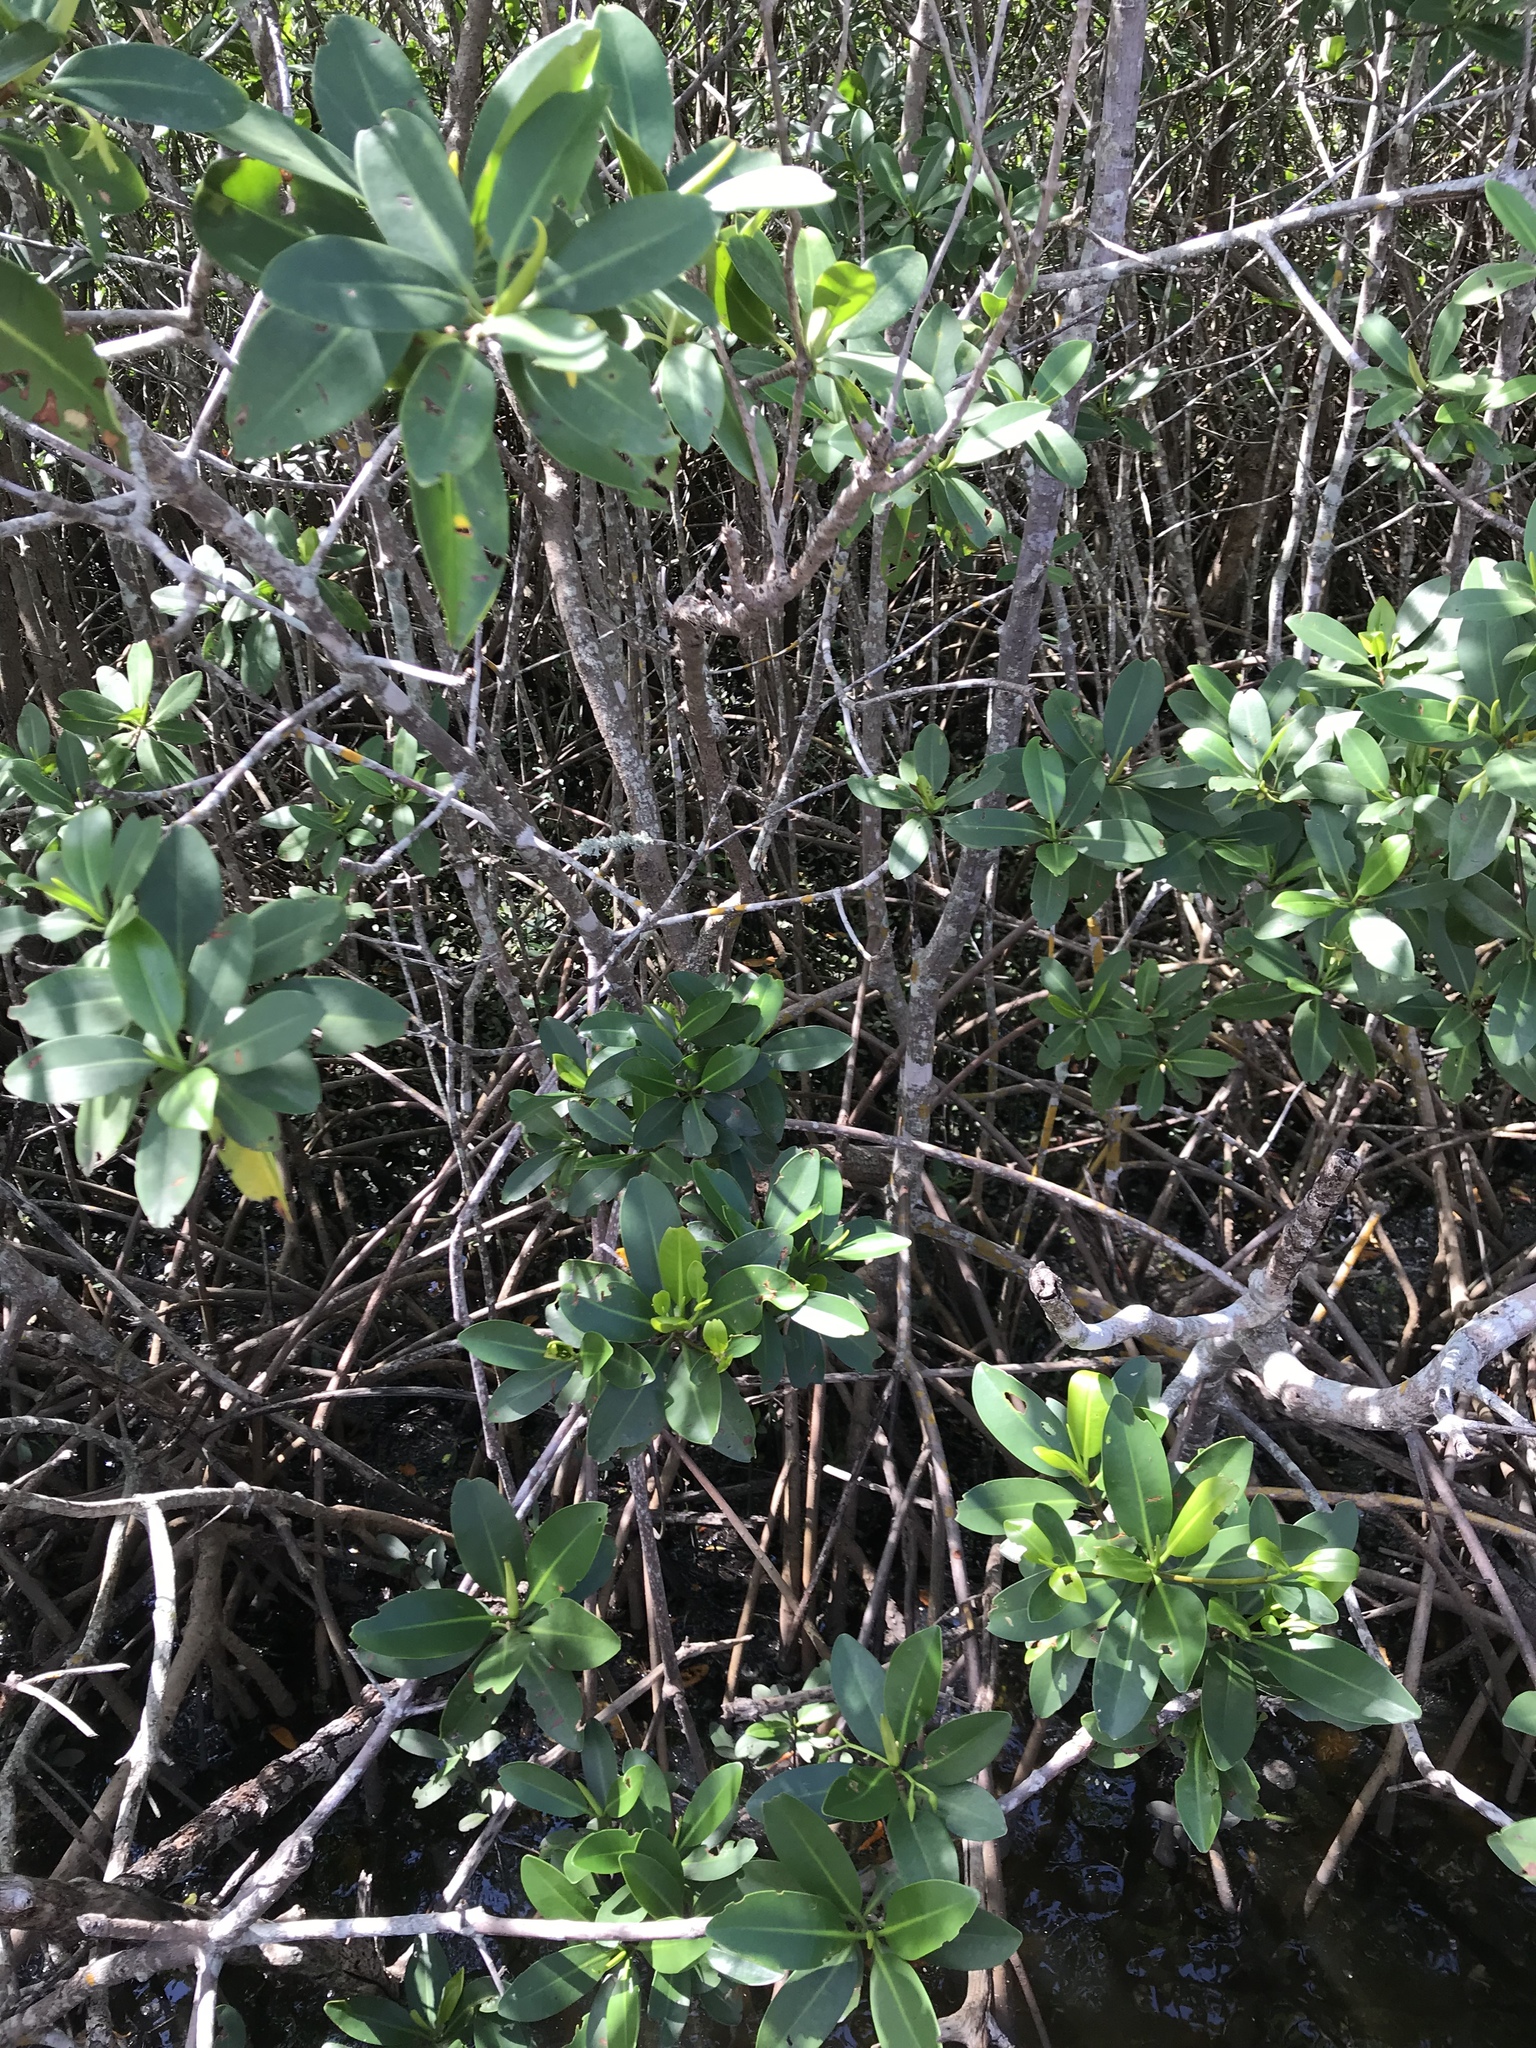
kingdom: Plantae
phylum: Tracheophyta
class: Magnoliopsida
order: Malpighiales
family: Rhizophoraceae
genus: Rhizophora
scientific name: Rhizophora mangle
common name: Red mangrove
